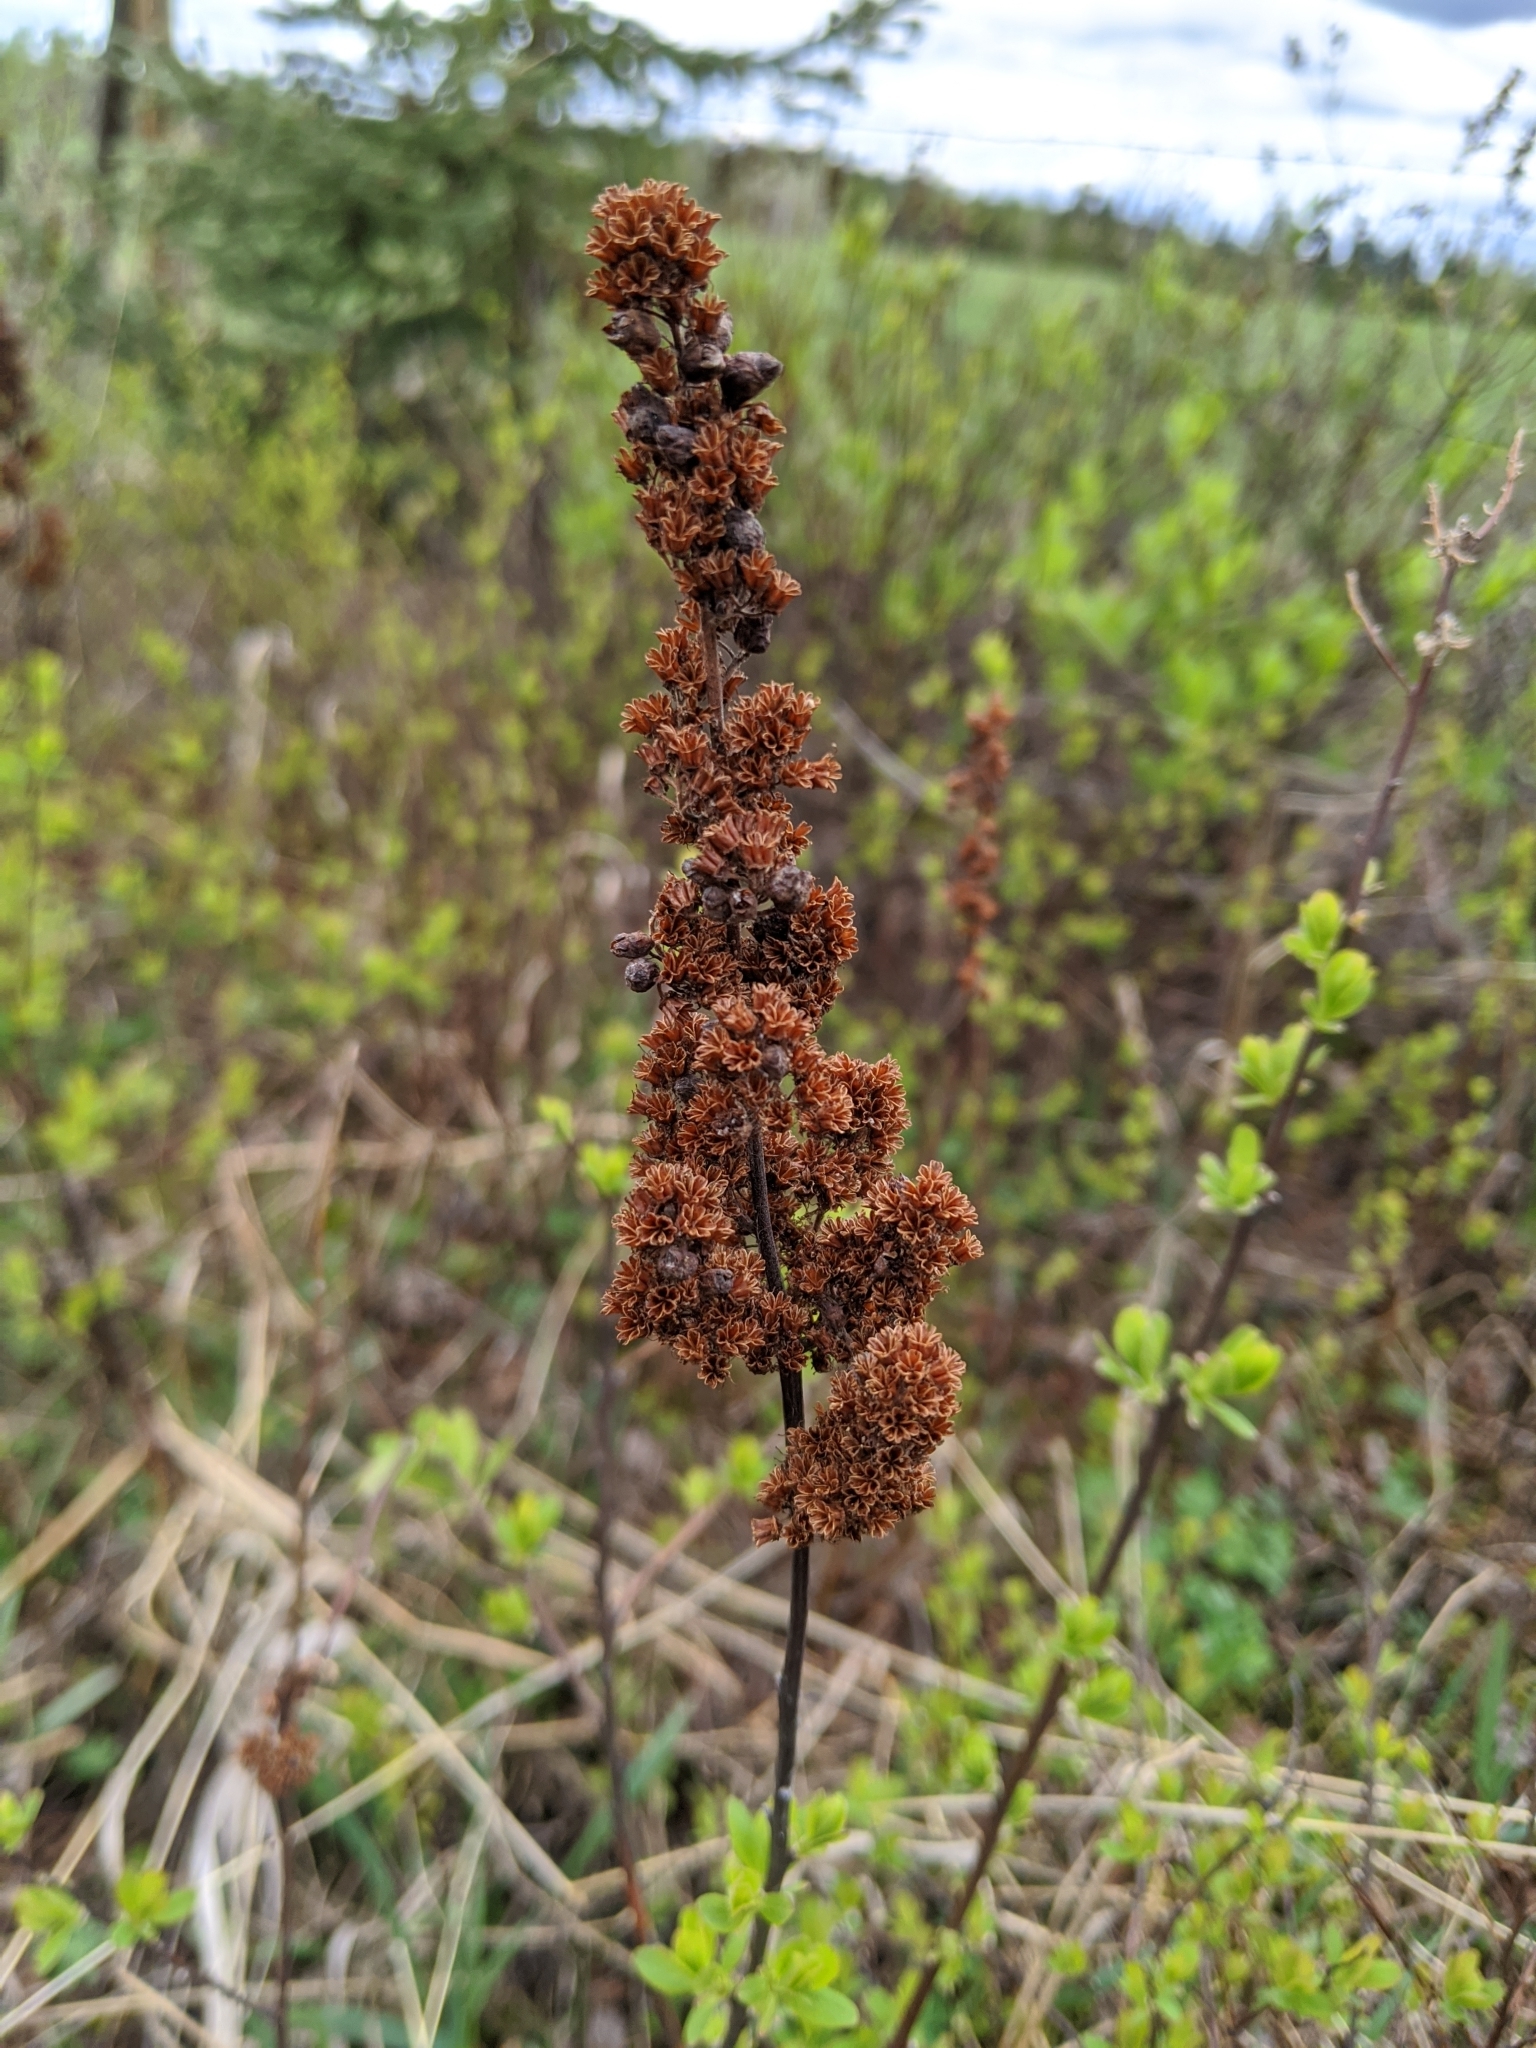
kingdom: Plantae
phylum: Tracheophyta
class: Magnoliopsida
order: Rosales
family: Rosaceae
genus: Spiraea
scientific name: Spiraea douglasii
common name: Steeplebush
